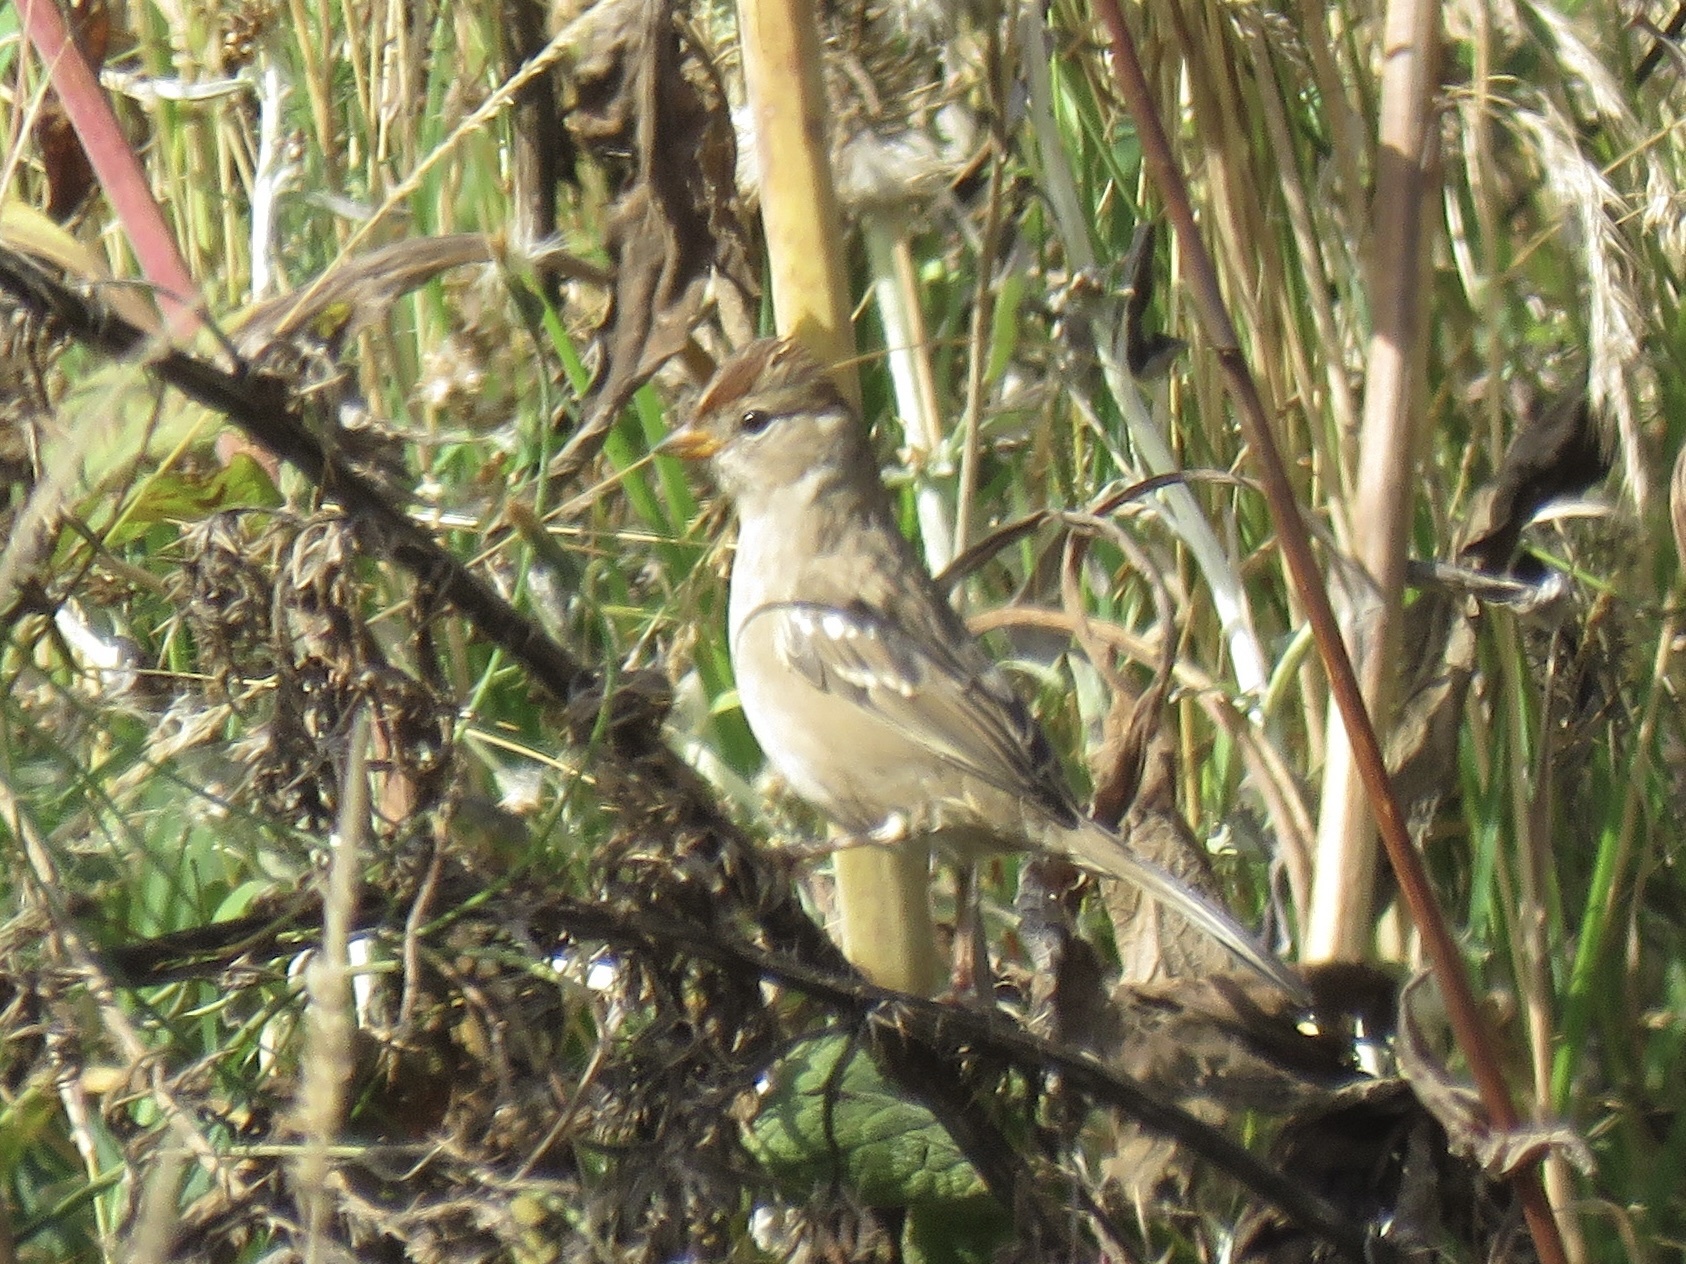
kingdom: Animalia
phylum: Chordata
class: Aves
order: Passeriformes
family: Passerellidae
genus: Zonotrichia
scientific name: Zonotrichia leucophrys
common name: White-crowned sparrow
